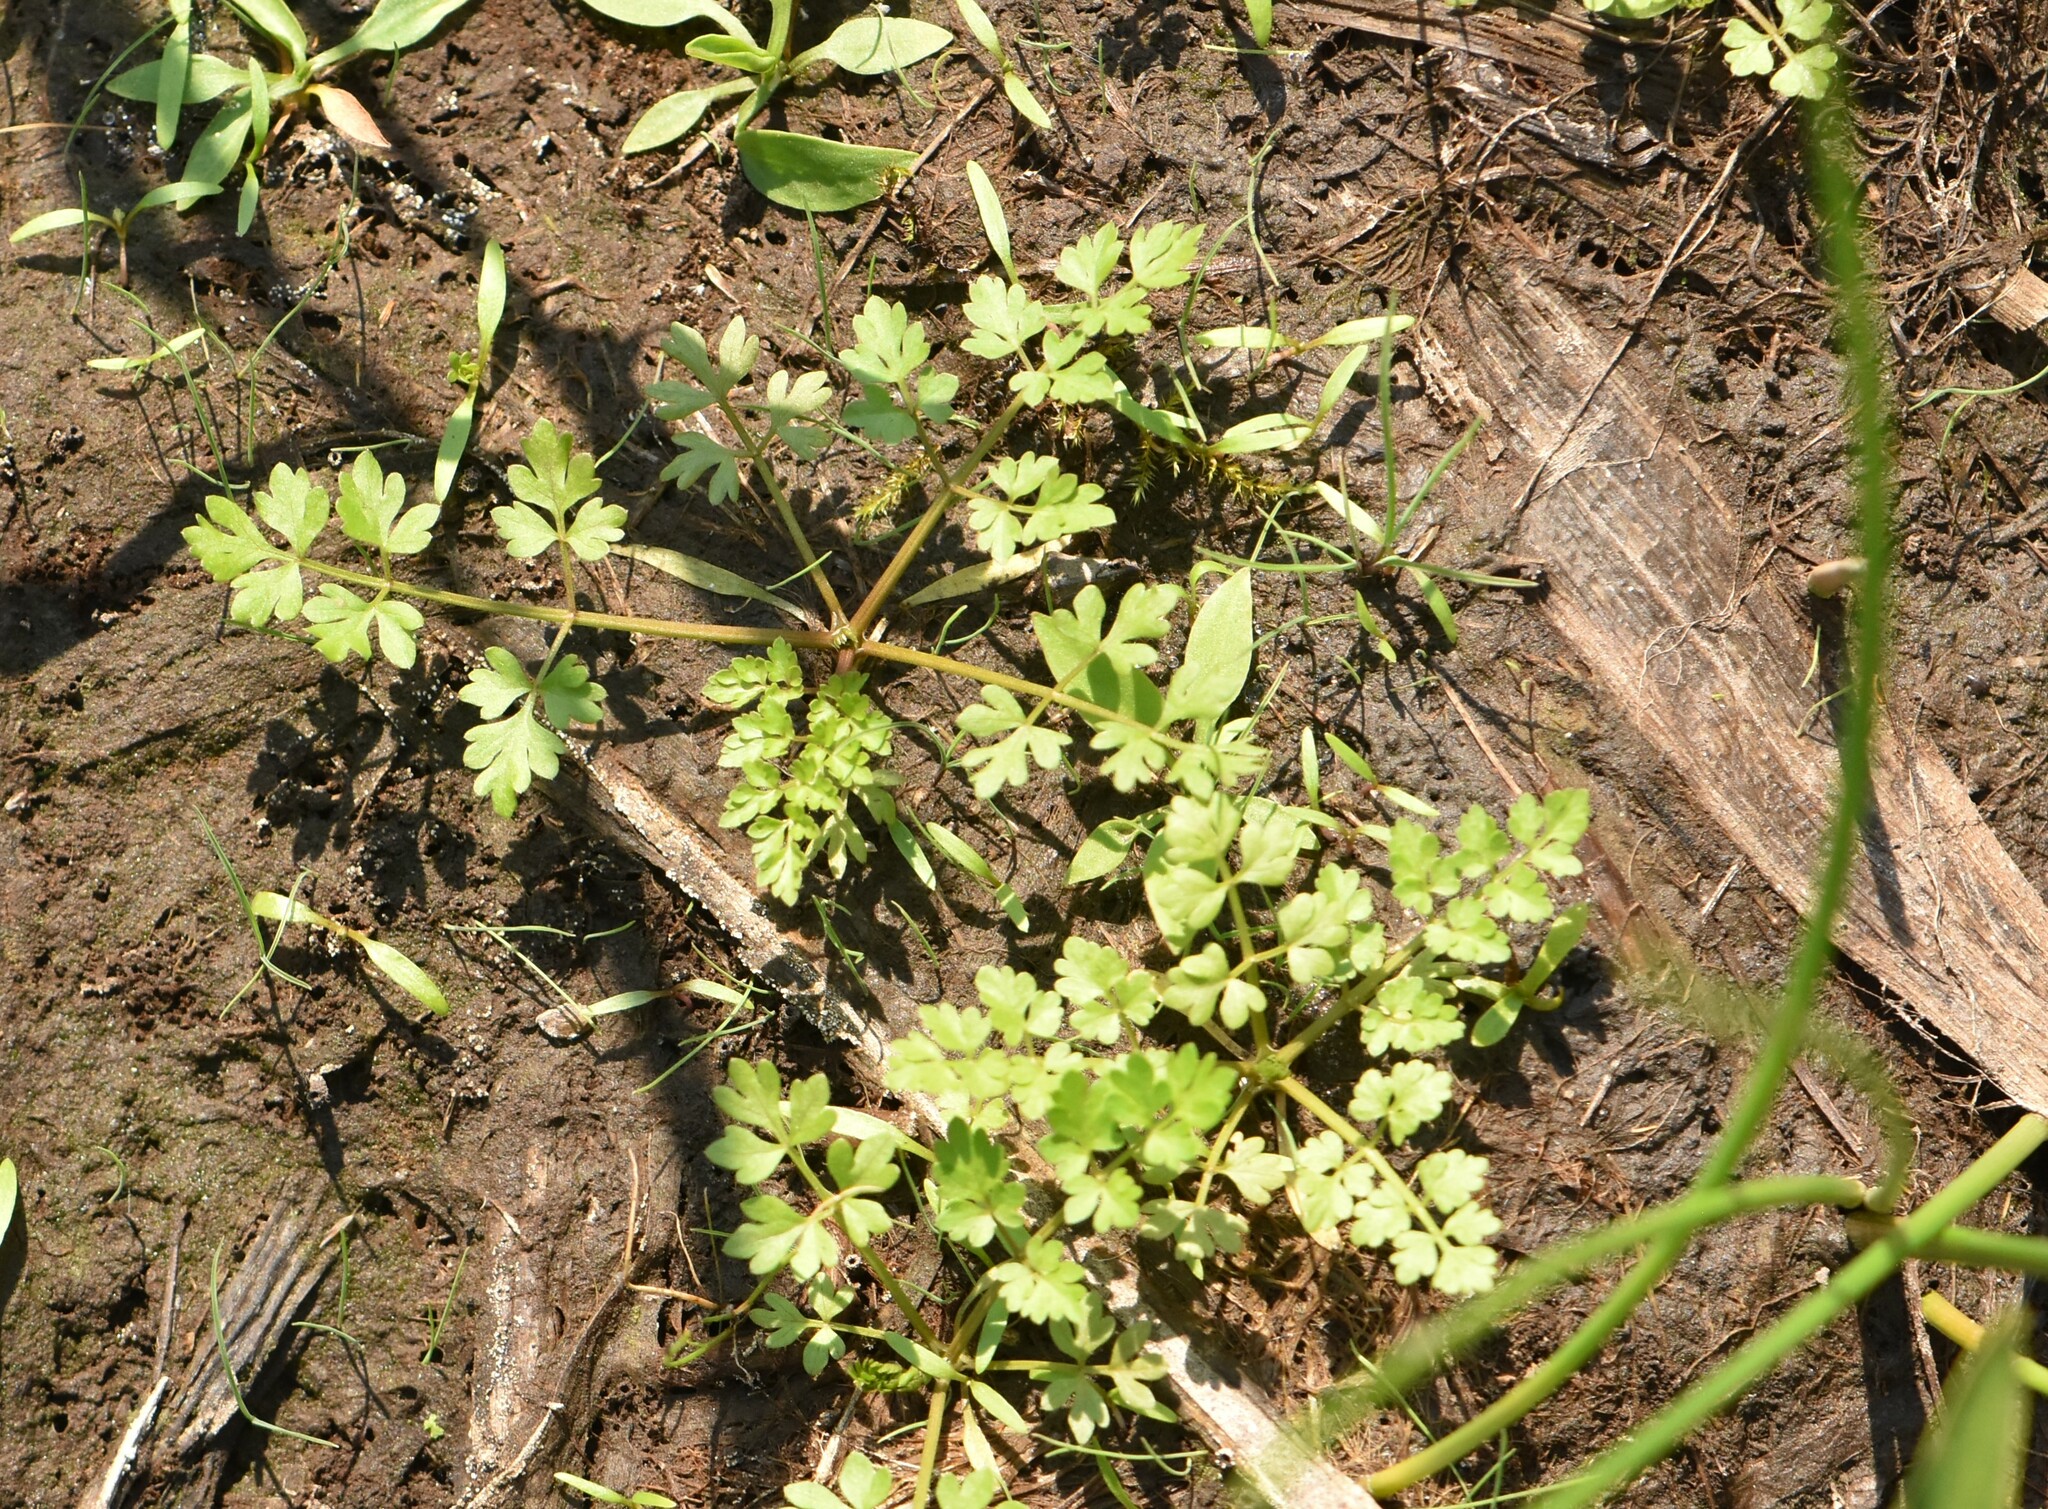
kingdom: Plantae
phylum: Tracheophyta
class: Magnoliopsida
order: Apiales
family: Apiaceae
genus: Oenanthe
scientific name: Oenanthe aquatica
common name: Fine-leaved water-dropwort
